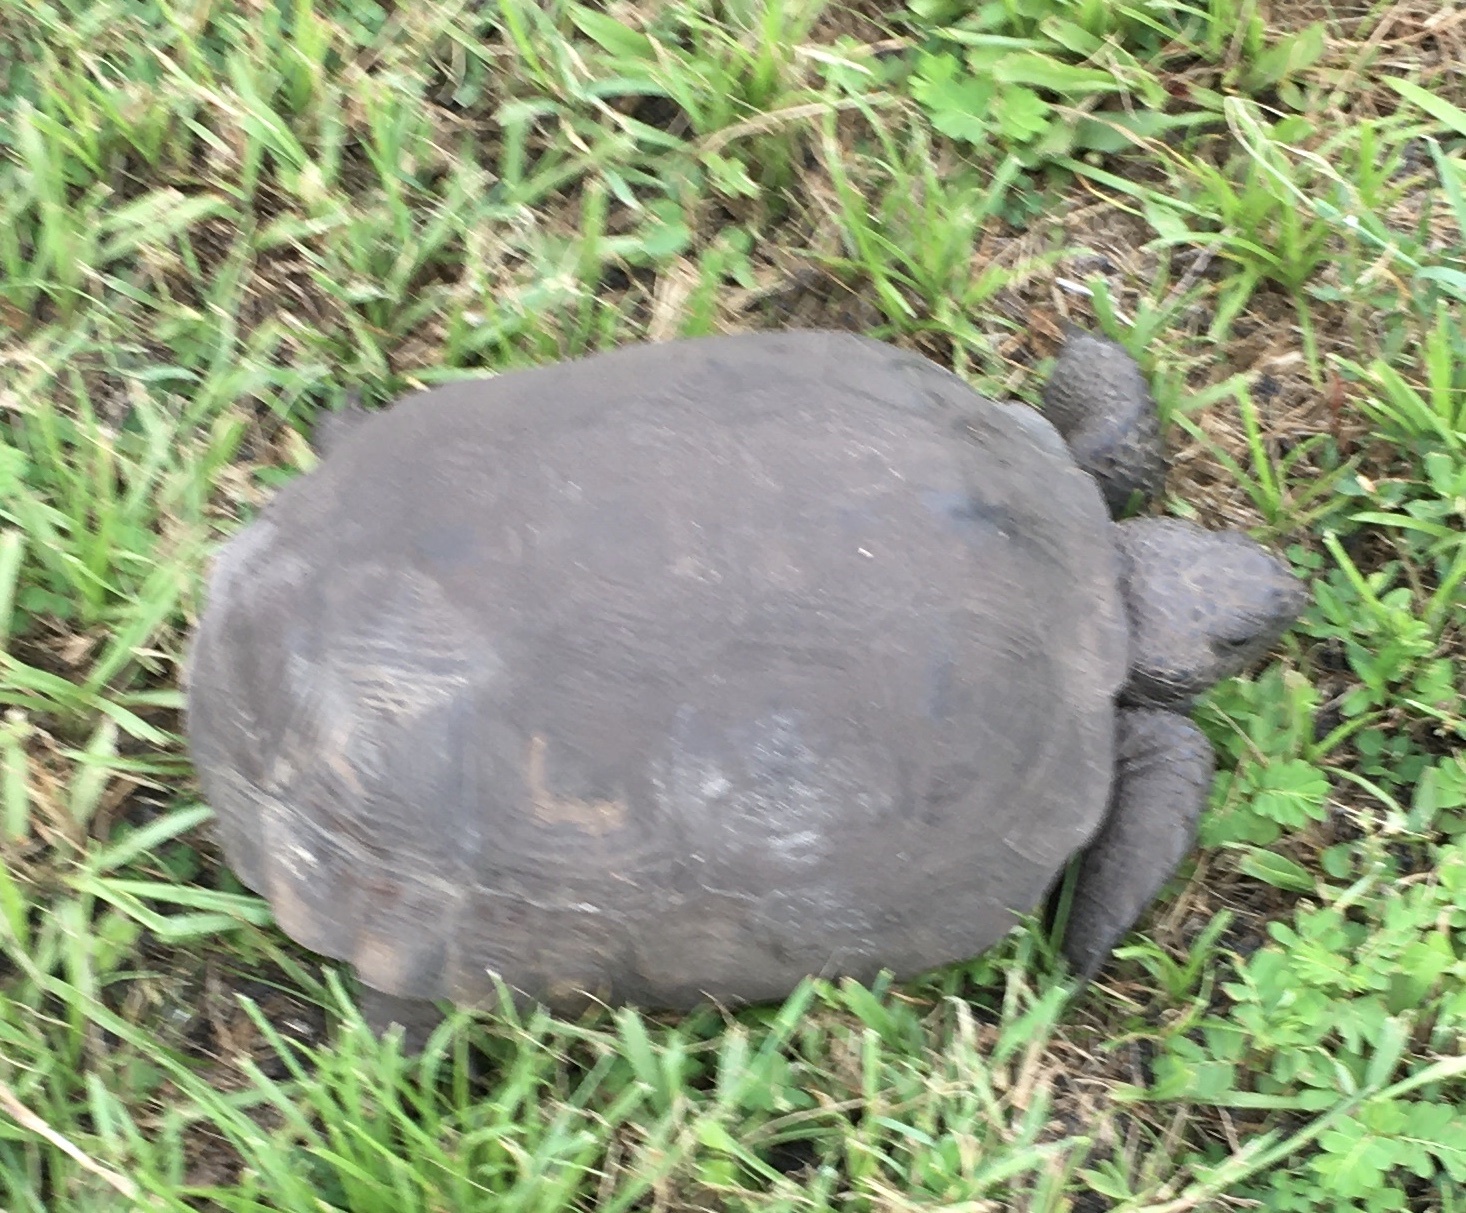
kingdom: Animalia
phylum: Chordata
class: Testudines
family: Testudinidae
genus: Gopherus
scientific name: Gopherus polyphemus
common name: Florida gopher tortoise
